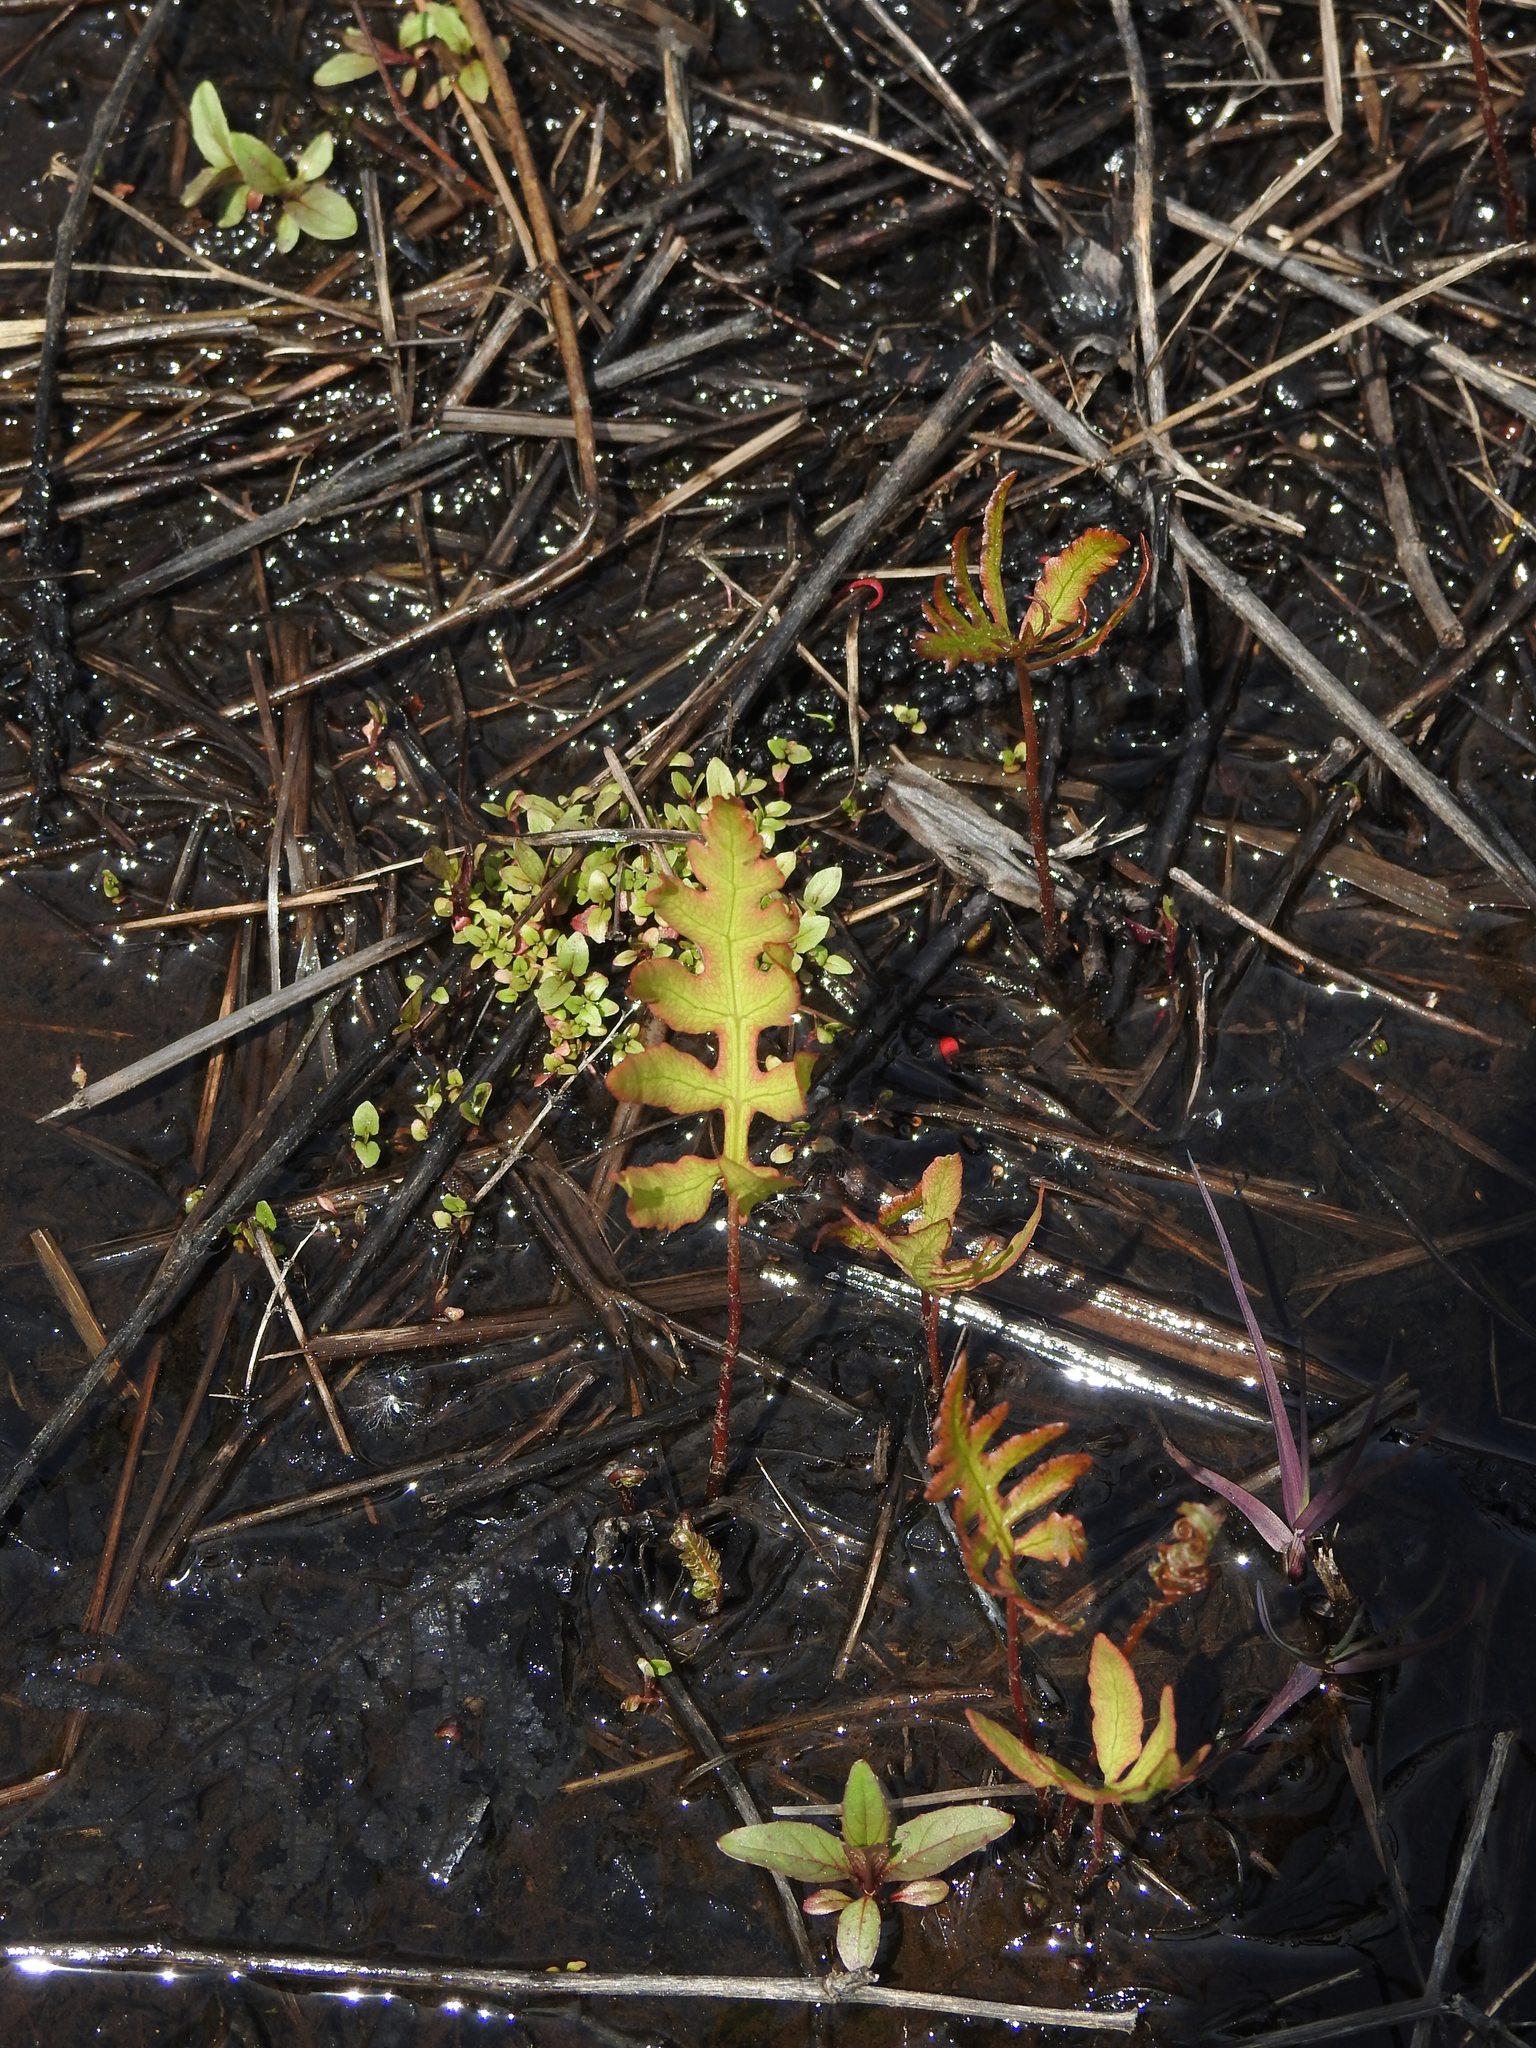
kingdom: Plantae
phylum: Tracheophyta
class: Polypodiopsida
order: Polypodiales
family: Onocleaceae
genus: Onoclea
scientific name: Onoclea sensibilis
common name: Sensitive fern
